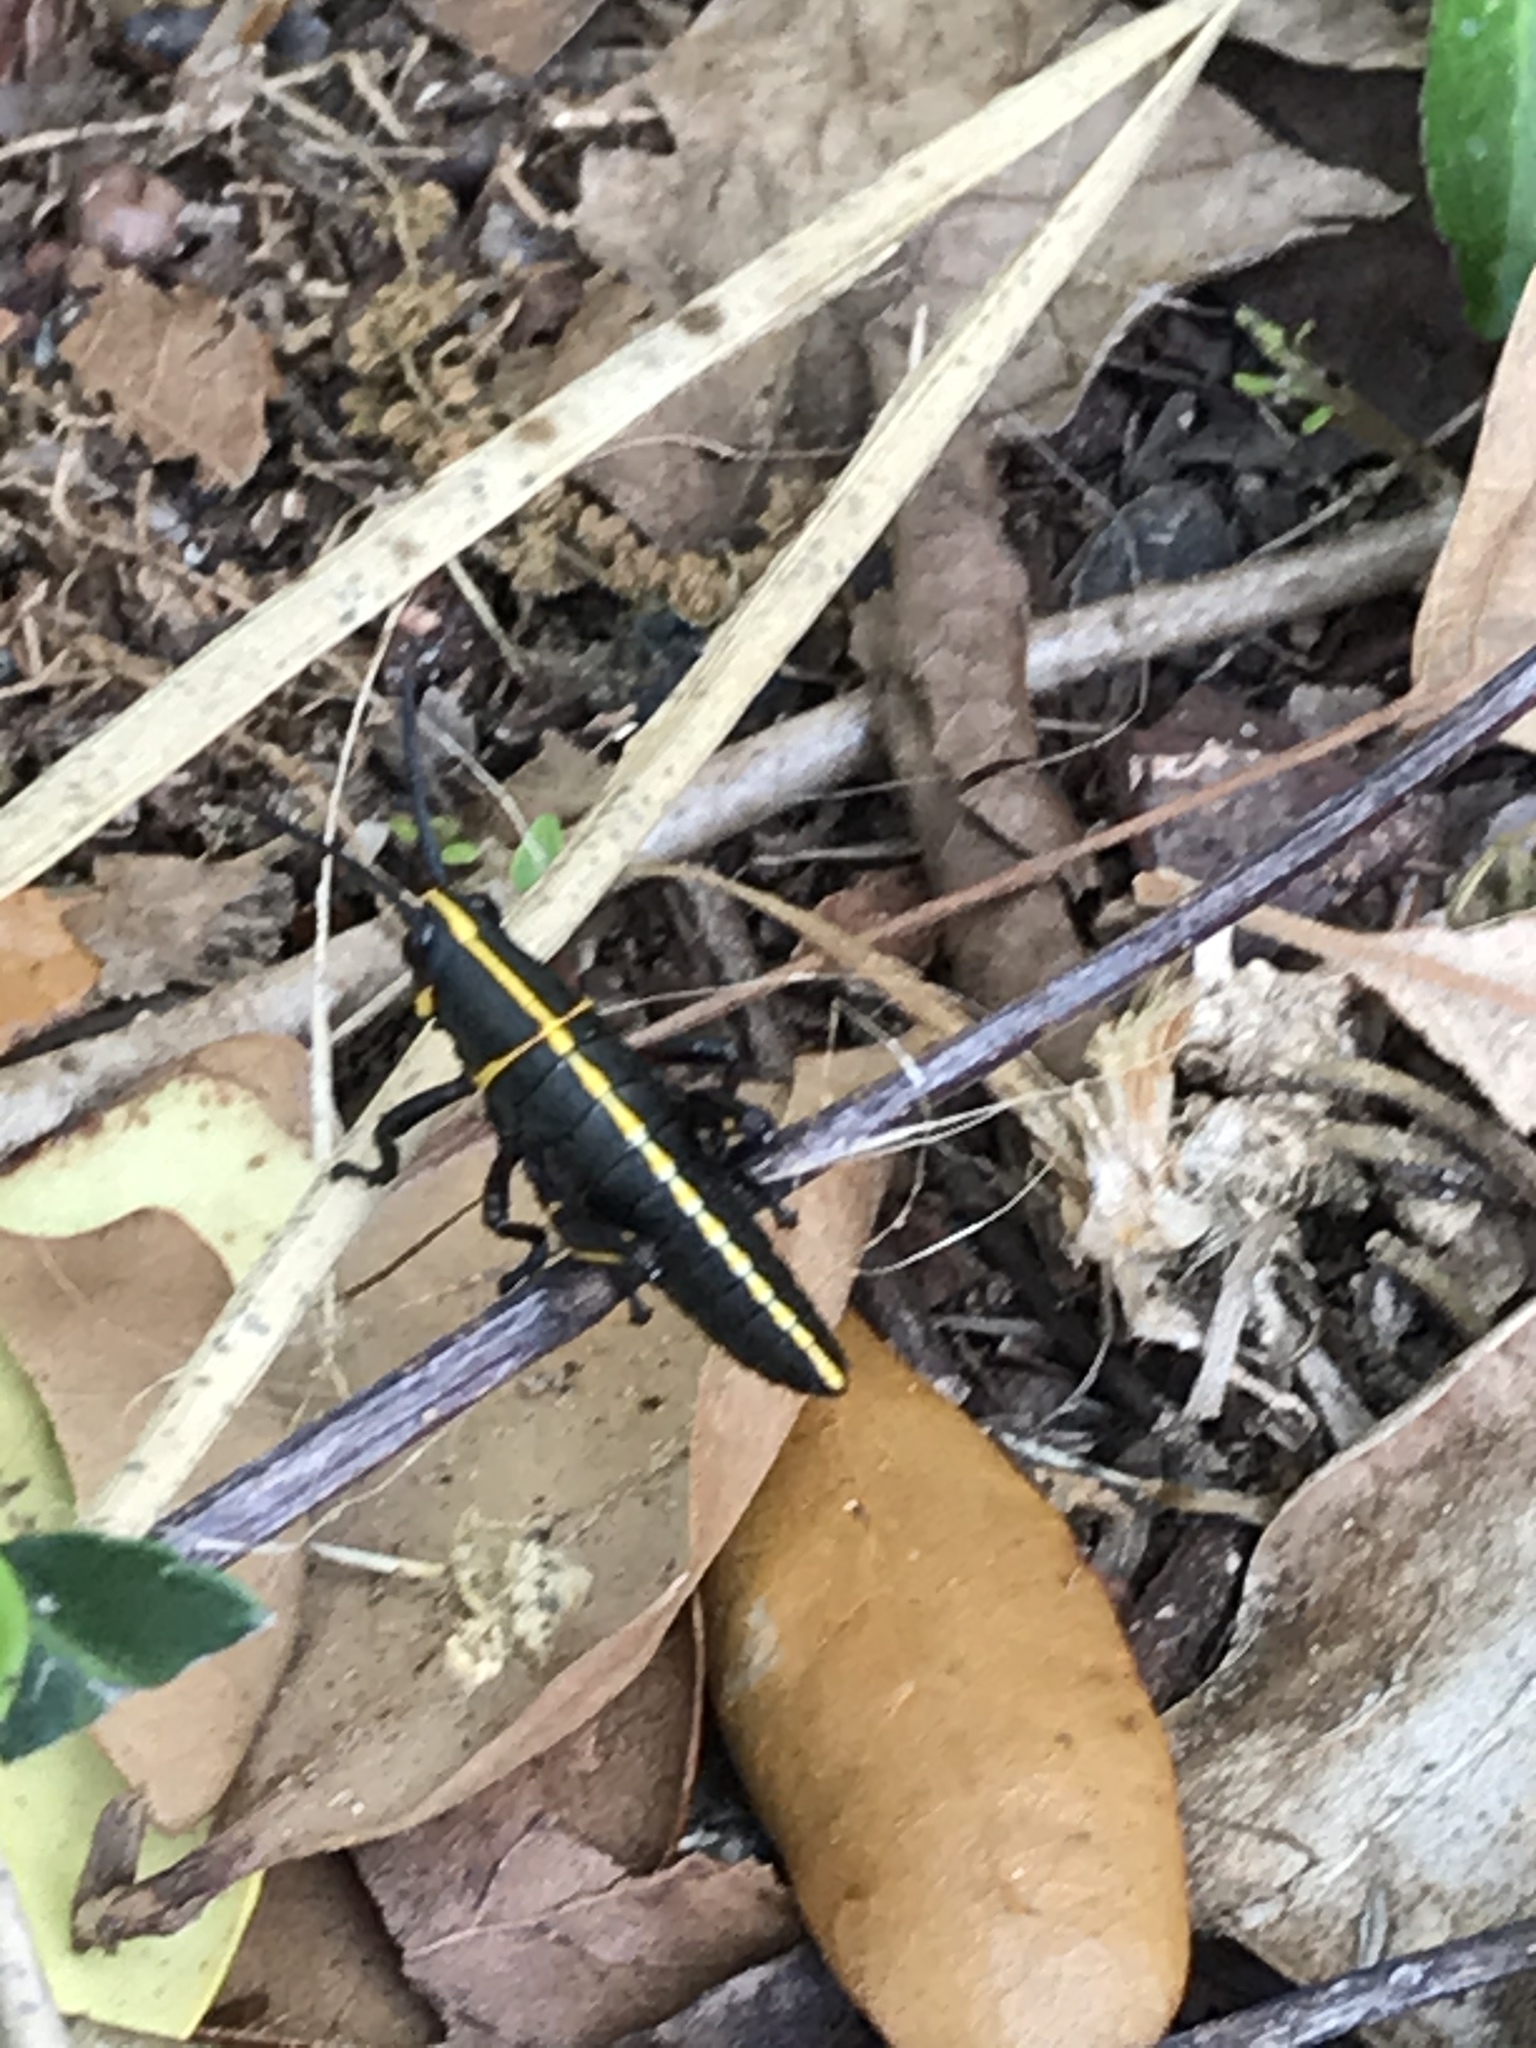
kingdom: Animalia
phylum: Arthropoda
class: Insecta
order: Orthoptera
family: Romaleidae
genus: Romalea
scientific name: Romalea microptera
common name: Eastern lubber grasshopper
